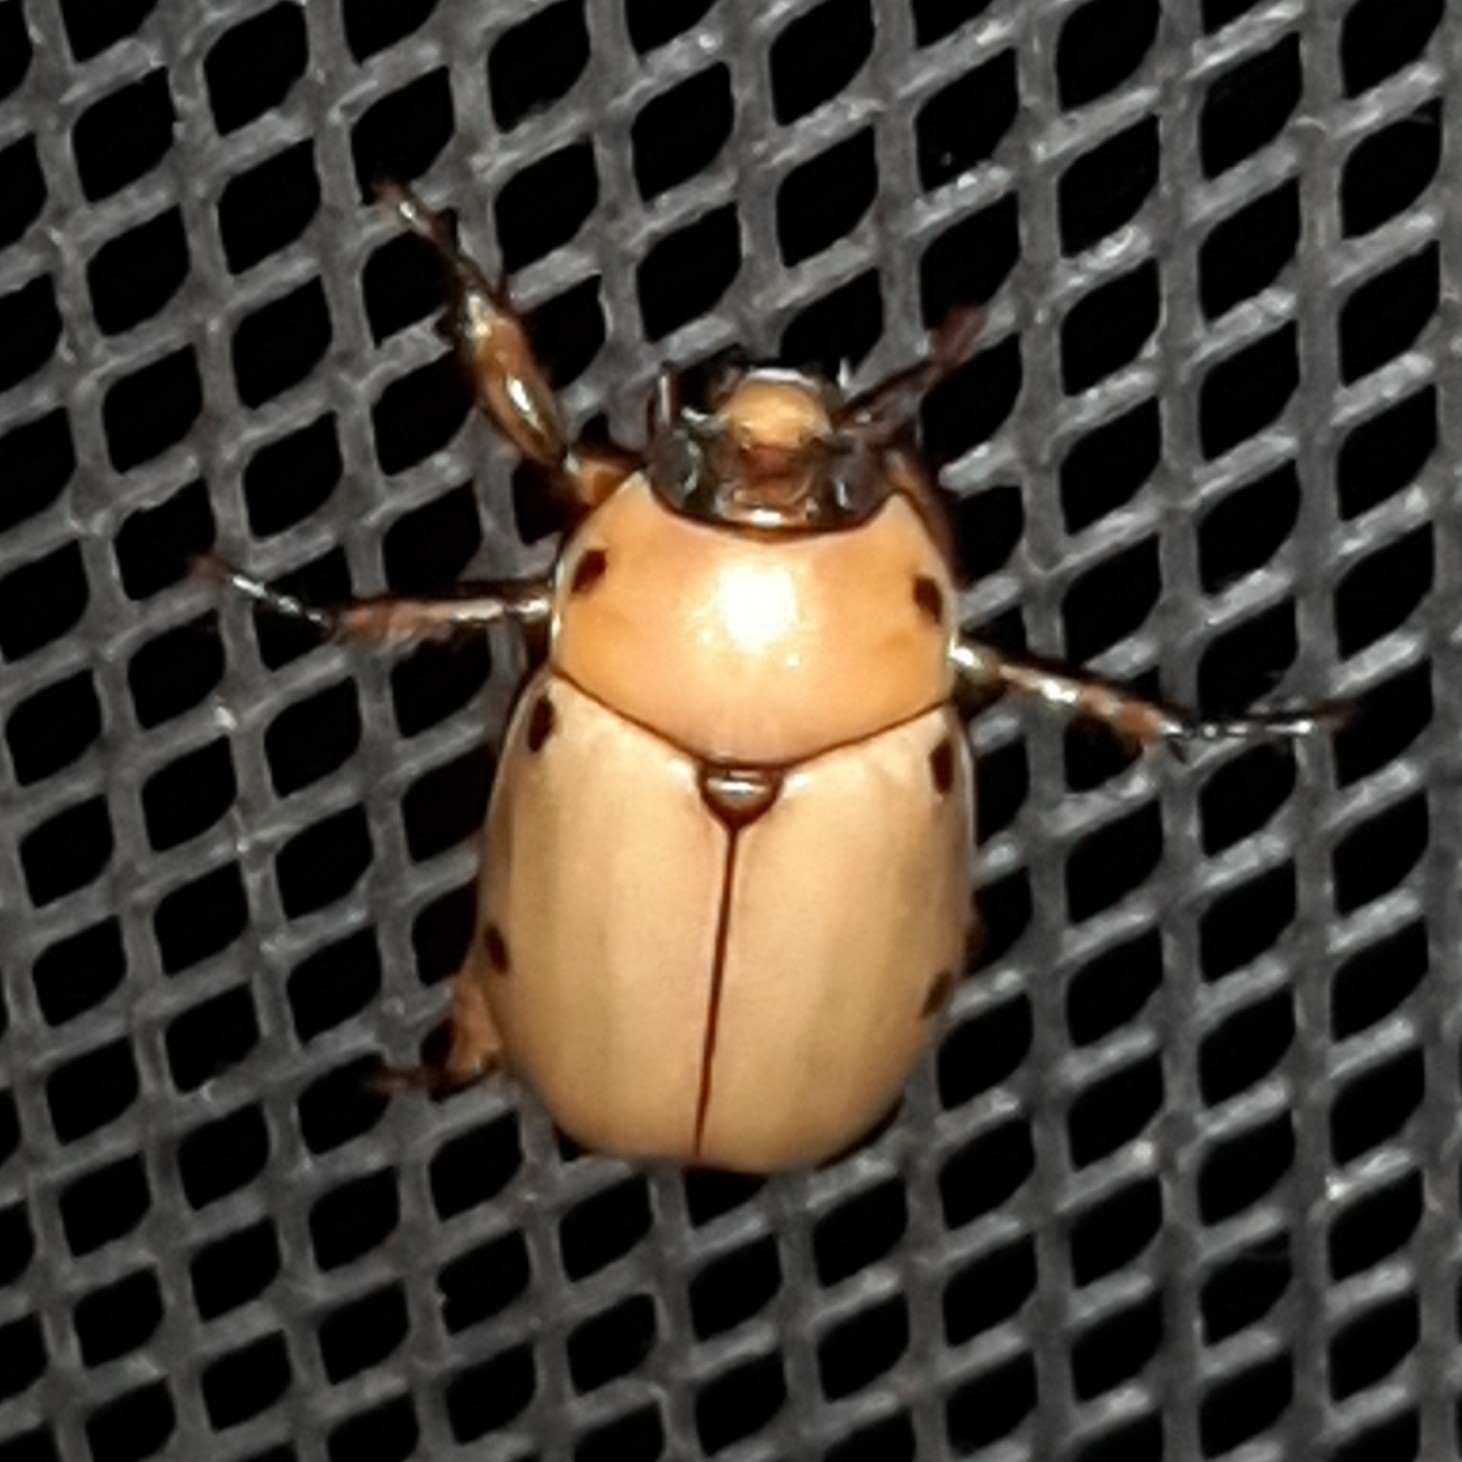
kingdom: Animalia
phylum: Arthropoda
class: Insecta
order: Coleoptera
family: Scarabaeidae
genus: Pelidnota
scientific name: Pelidnota costaricensis
